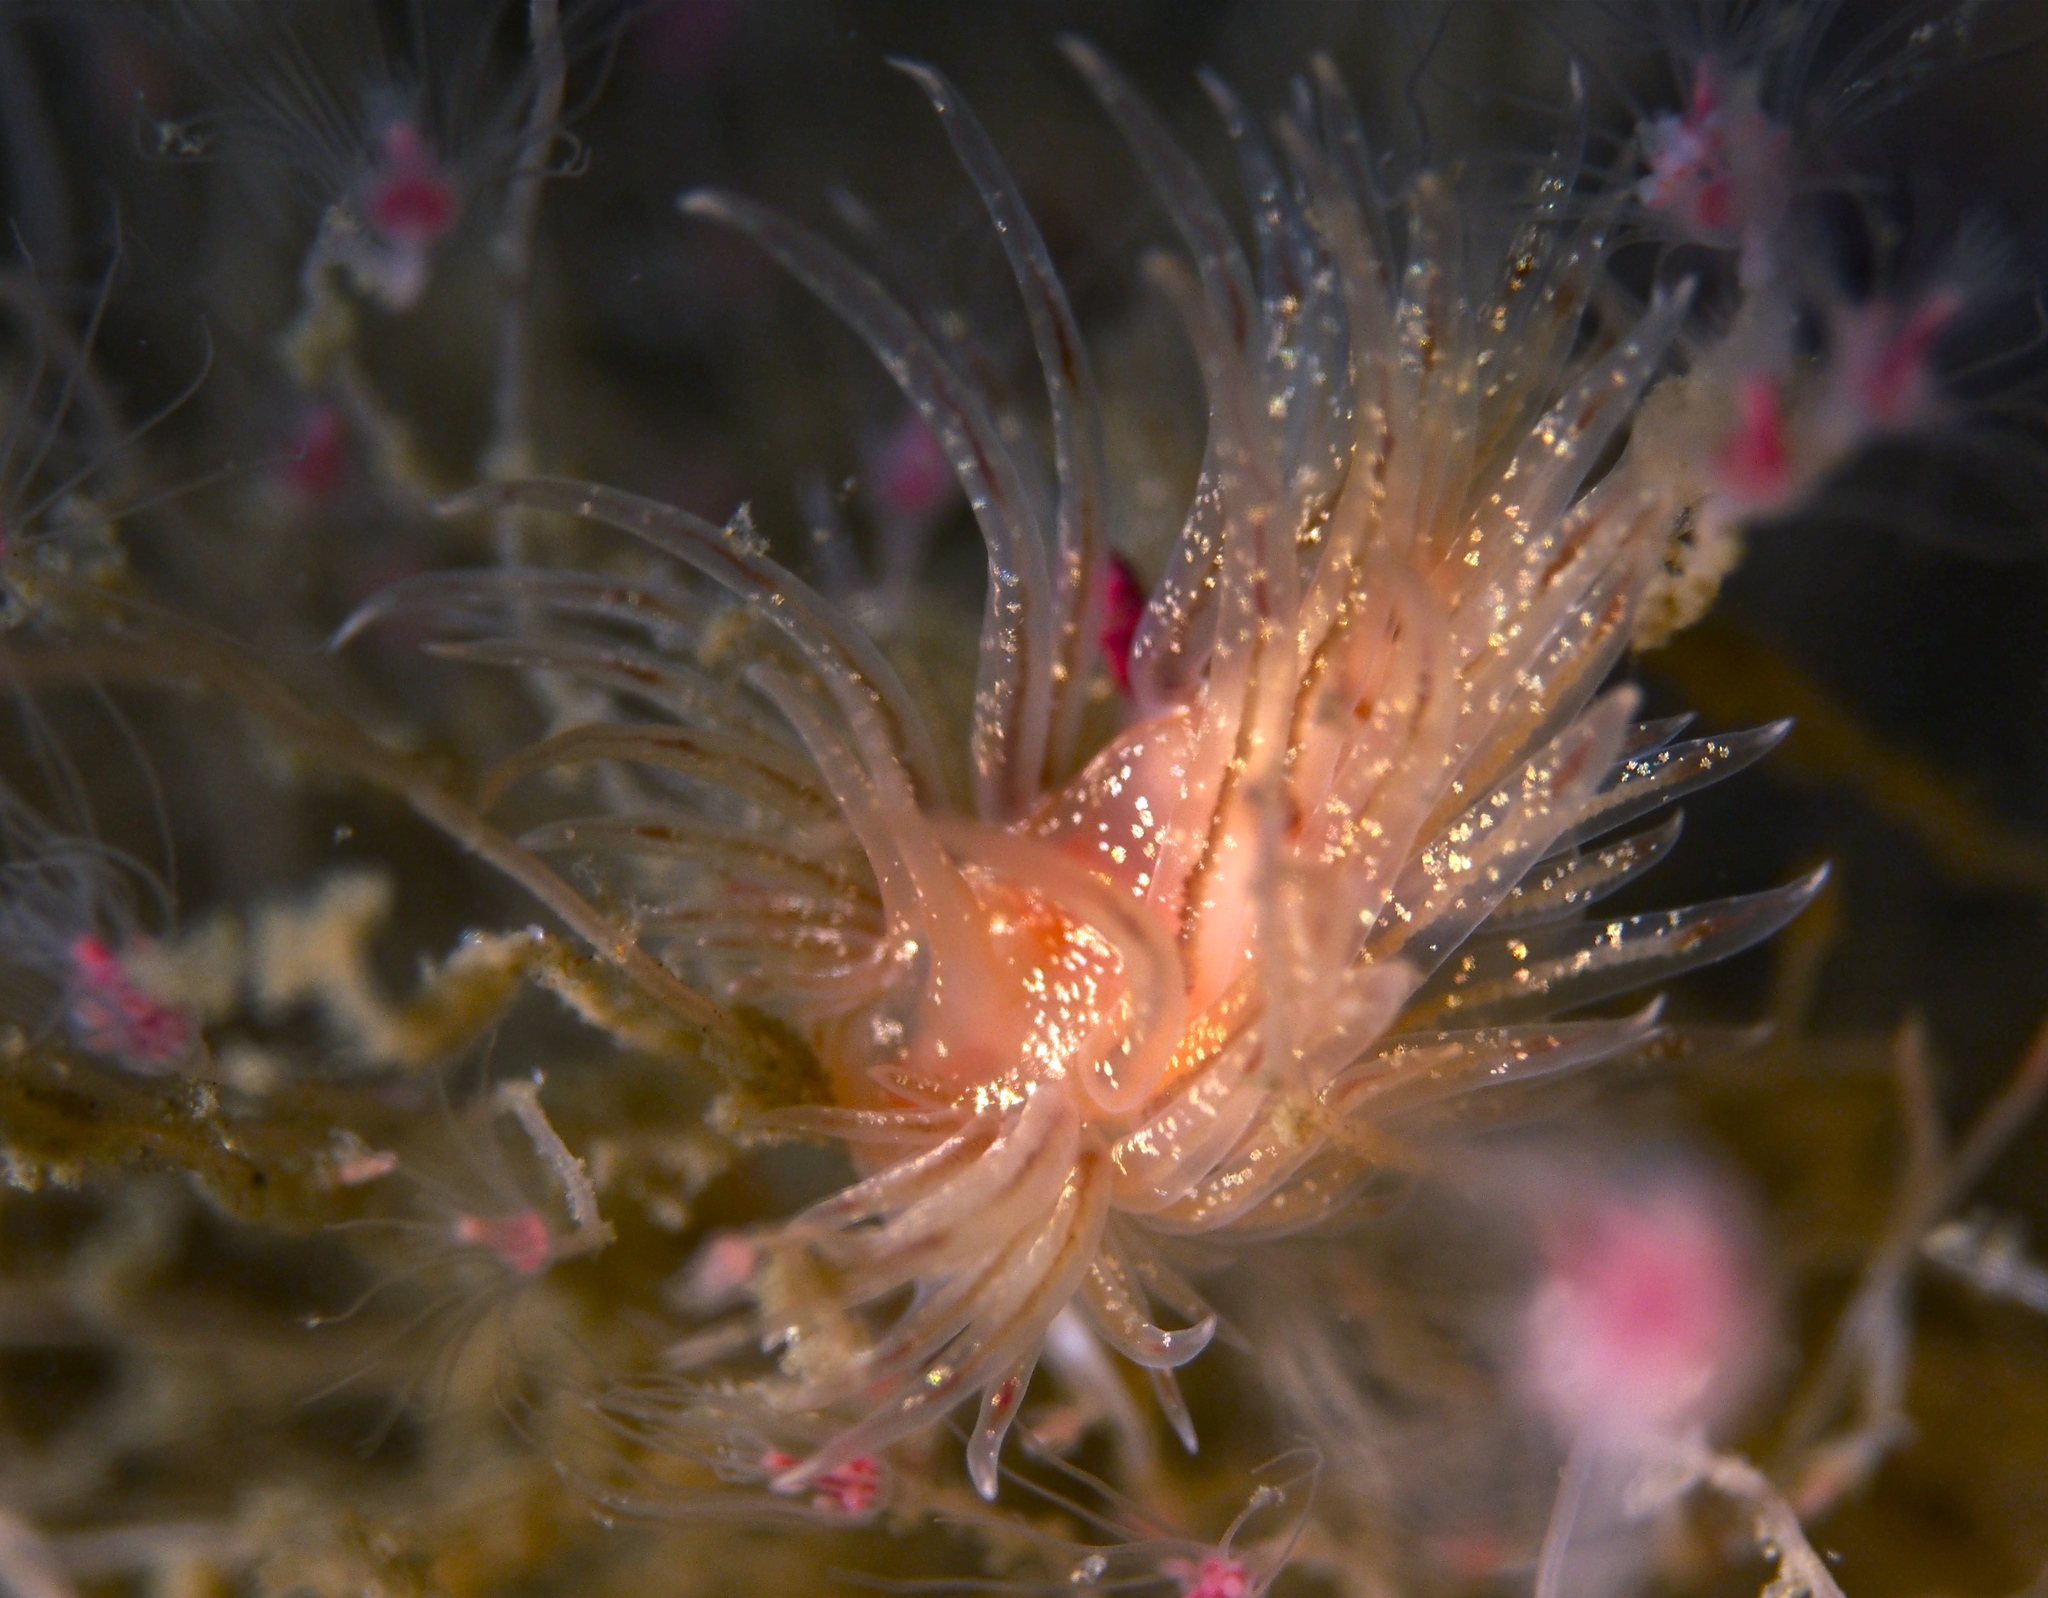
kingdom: Animalia
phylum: Mollusca
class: Gastropoda
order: Nudibranchia
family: Cumanotidae
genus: Cumanotus
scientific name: Cumanotus beaumonti
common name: Polyp aeolis
